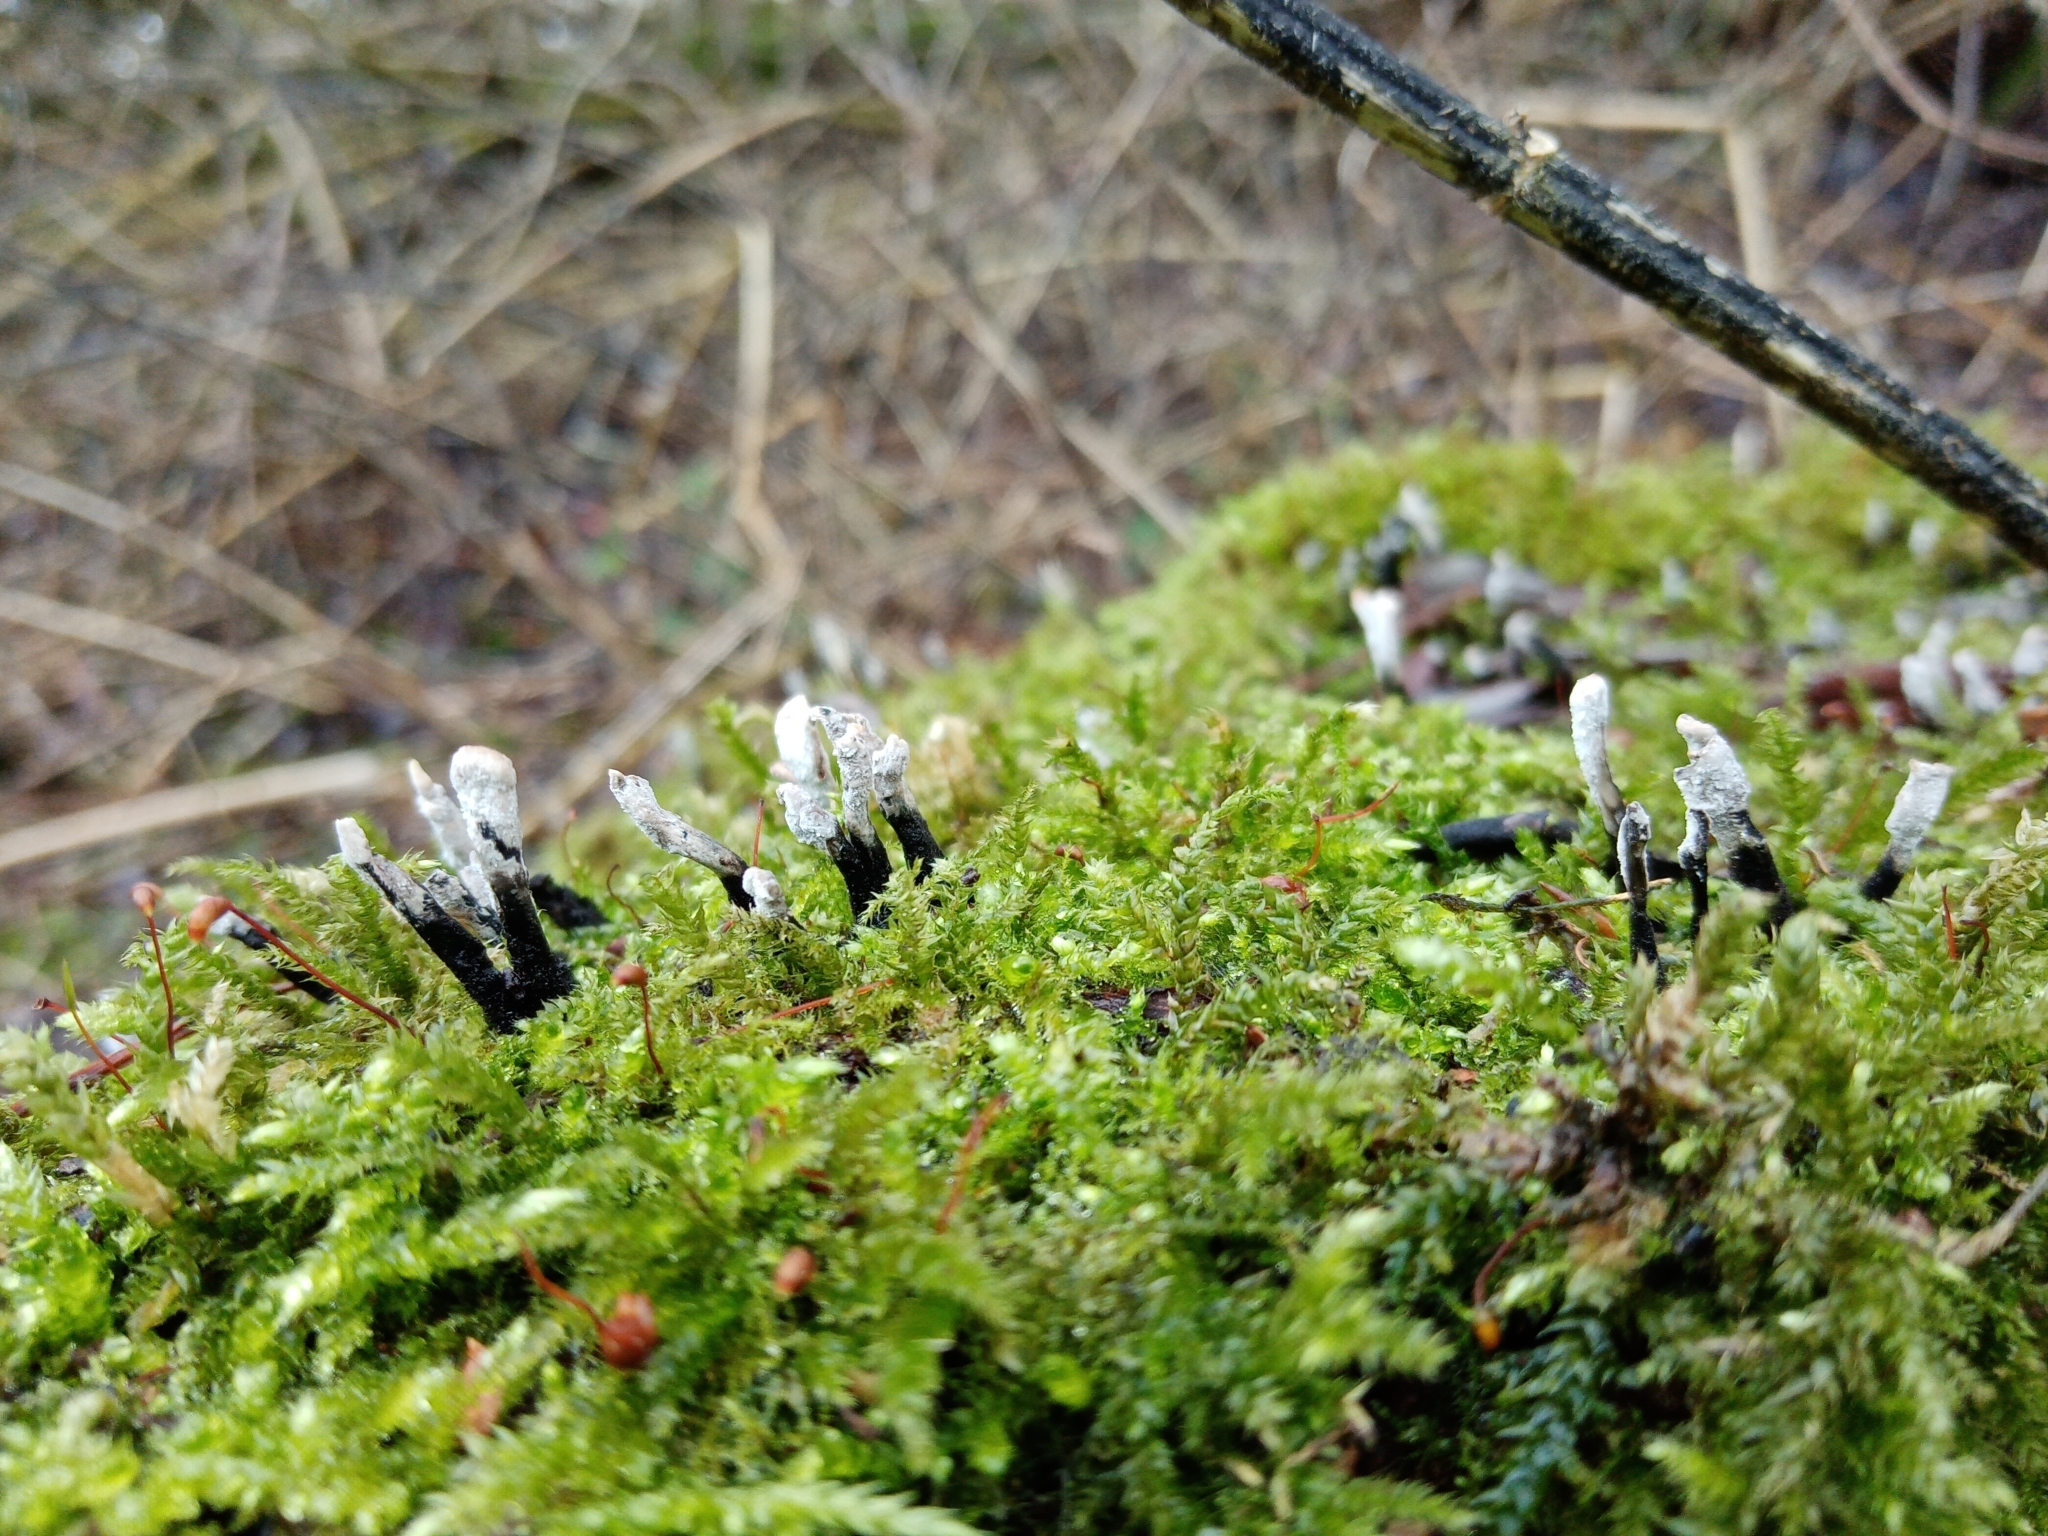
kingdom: Fungi
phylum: Ascomycota
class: Sordariomycetes
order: Xylariales
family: Xylariaceae
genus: Xylaria
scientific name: Xylaria hypoxylon
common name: Candle-snuff fungus
